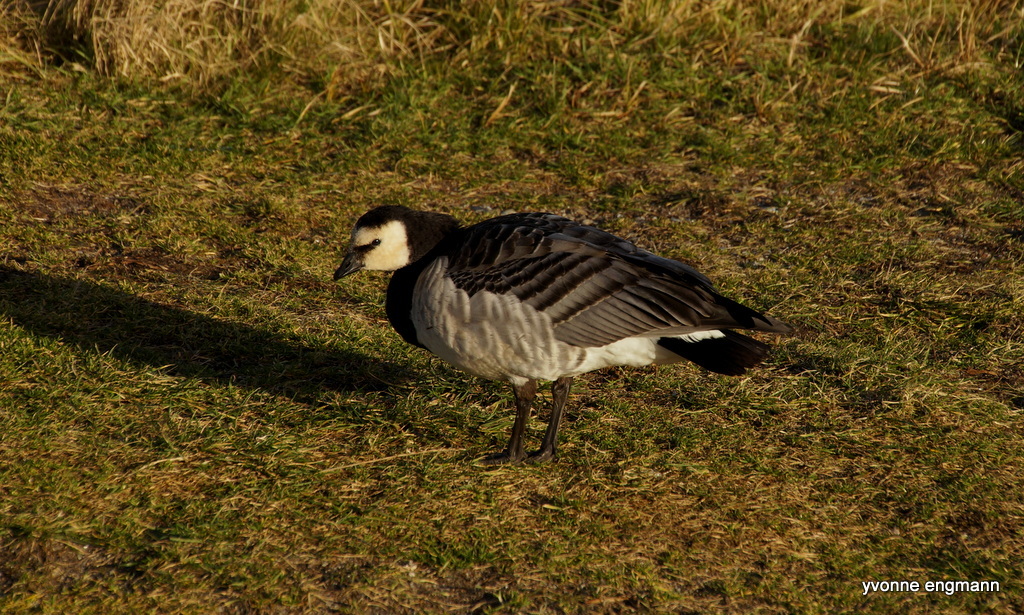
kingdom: Animalia
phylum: Chordata
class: Aves
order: Anseriformes
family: Anatidae
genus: Branta
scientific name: Branta leucopsis
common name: Barnacle goose
